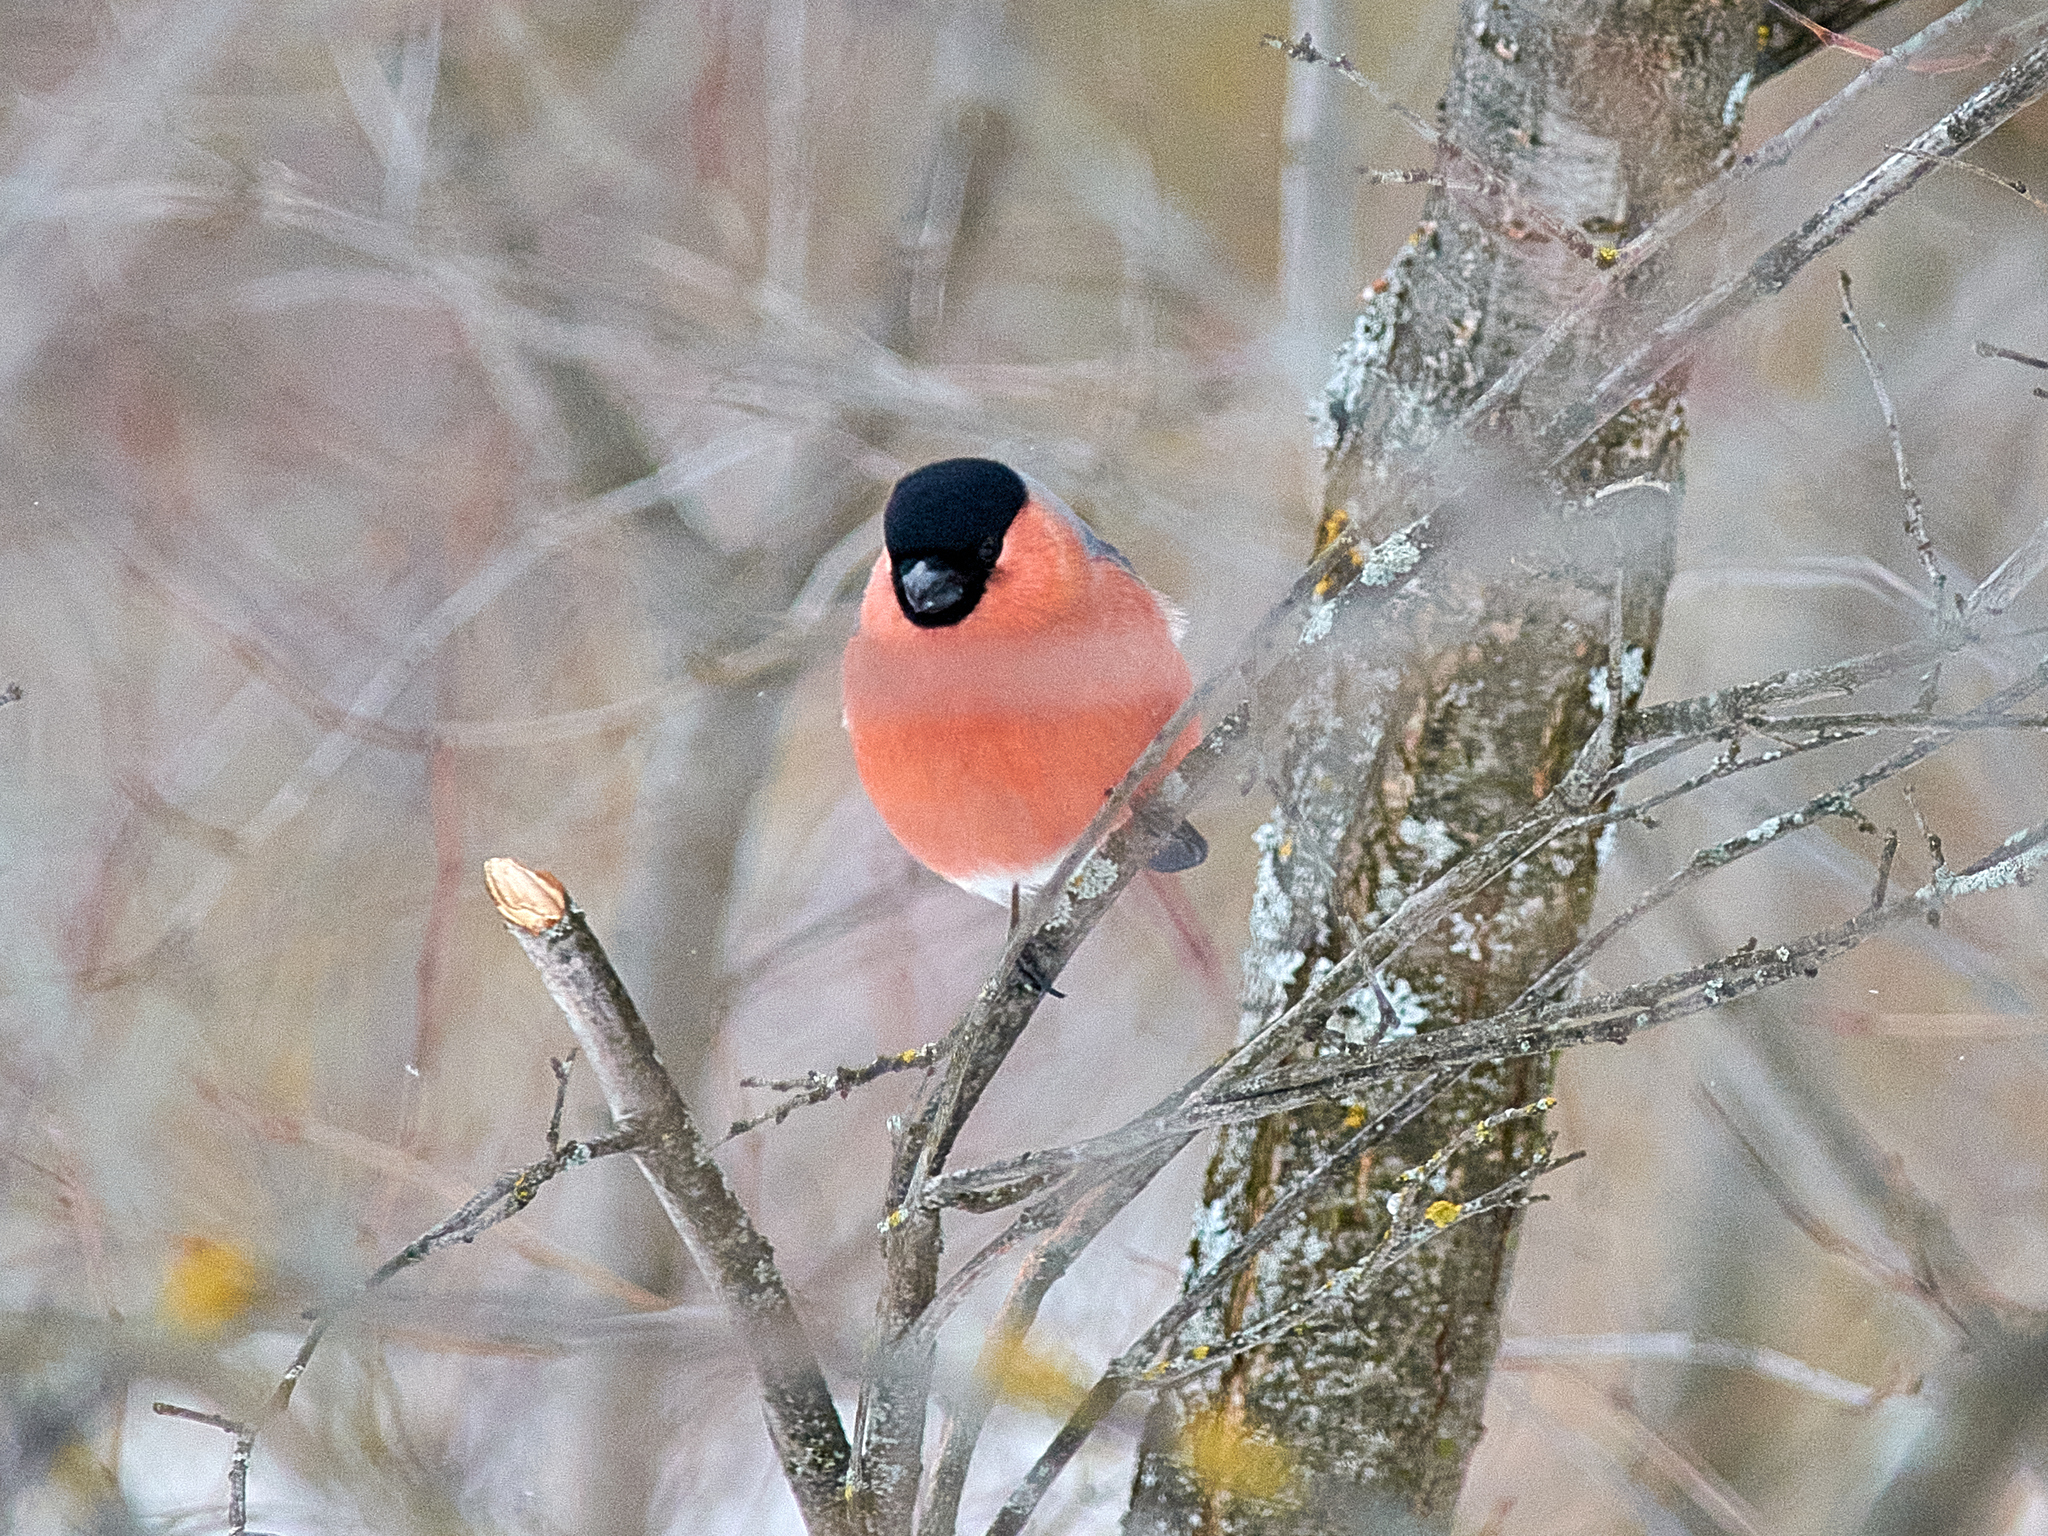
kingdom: Animalia
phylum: Chordata
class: Aves
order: Passeriformes
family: Fringillidae
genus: Pyrrhula
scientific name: Pyrrhula pyrrhula
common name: Eurasian bullfinch
